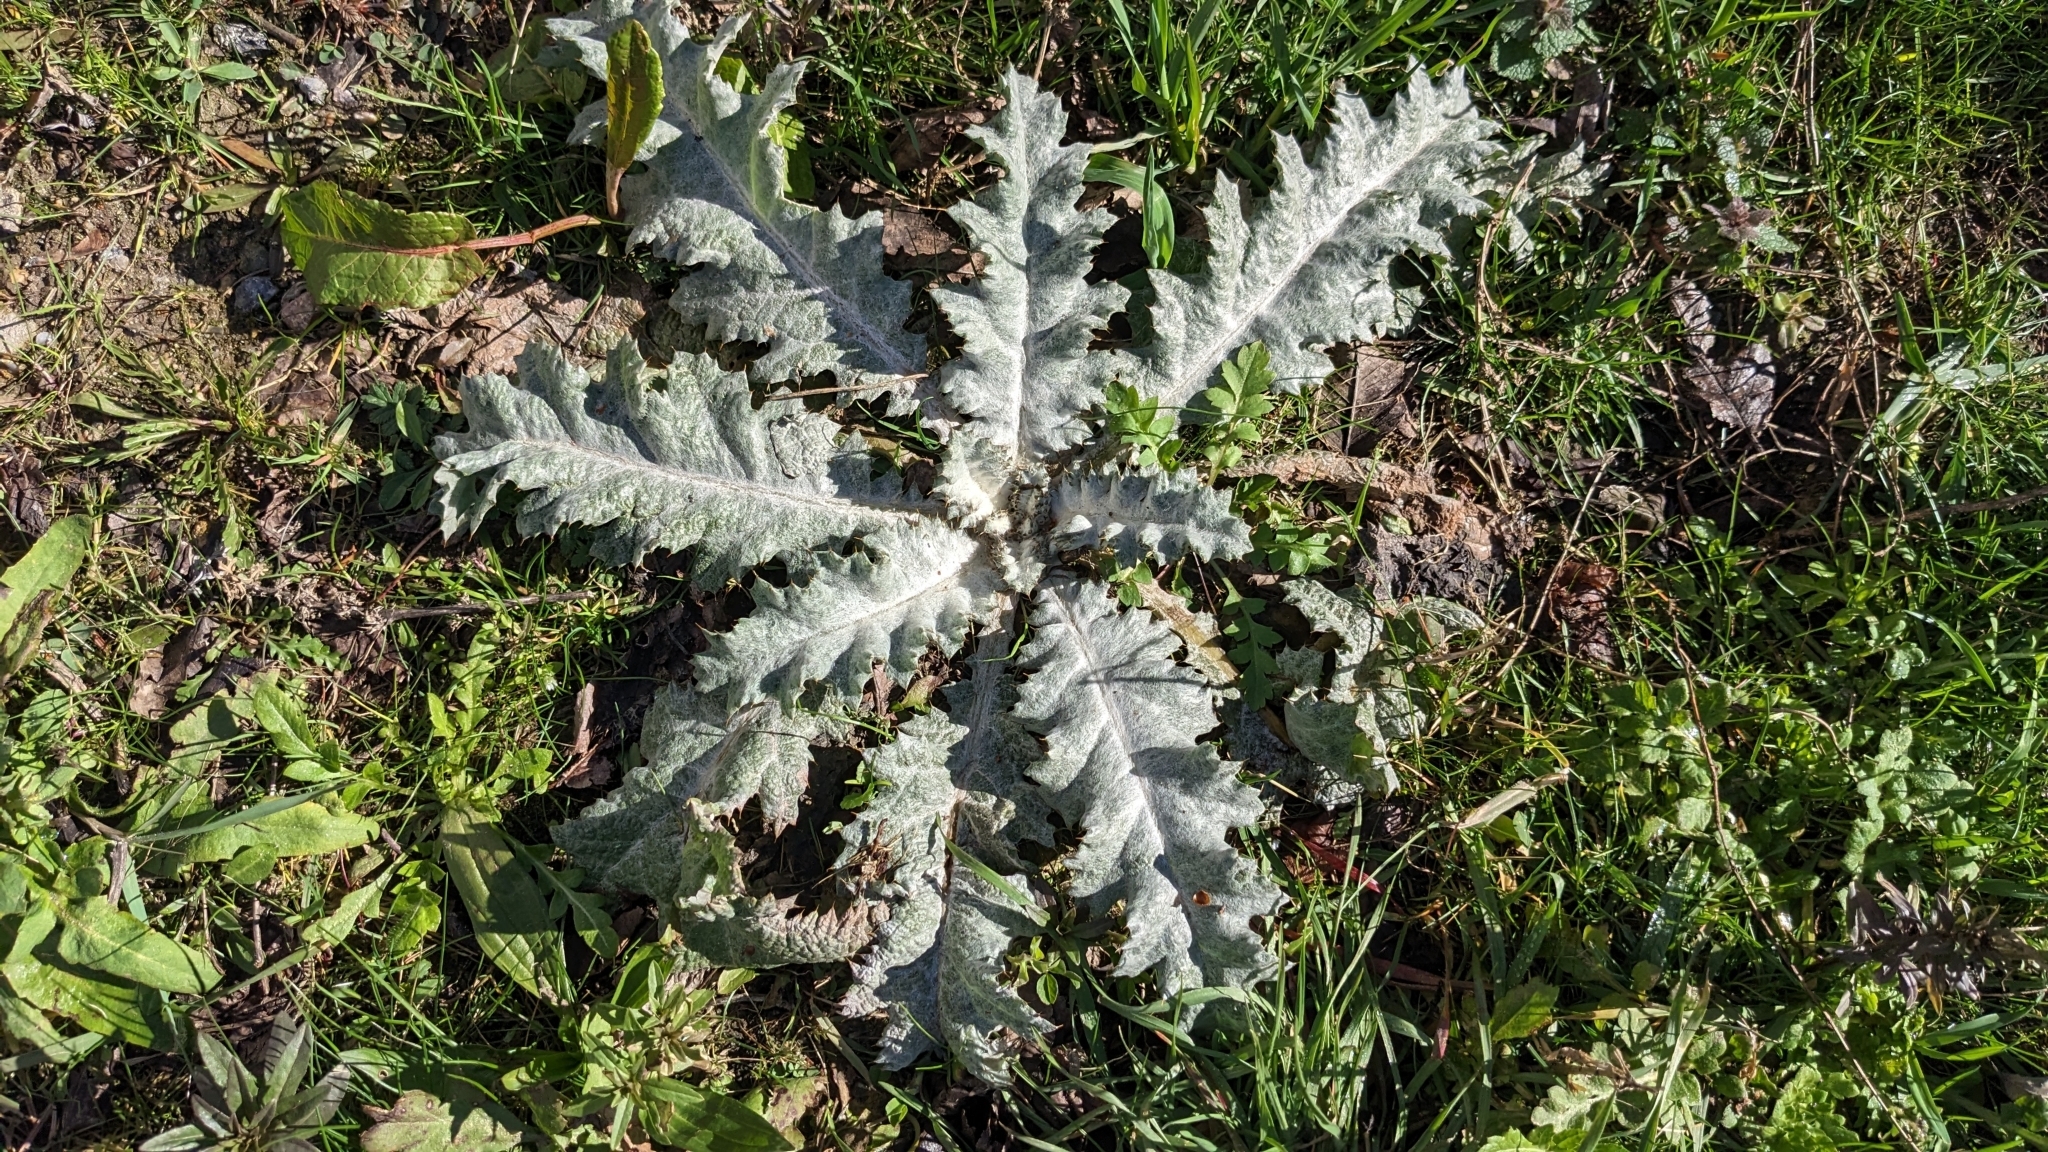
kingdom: Plantae
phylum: Tracheophyta
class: Magnoliopsida
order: Asterales
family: Asteraceae
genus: Onopordum
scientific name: Onopordum acanthium
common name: Scotch thistle
